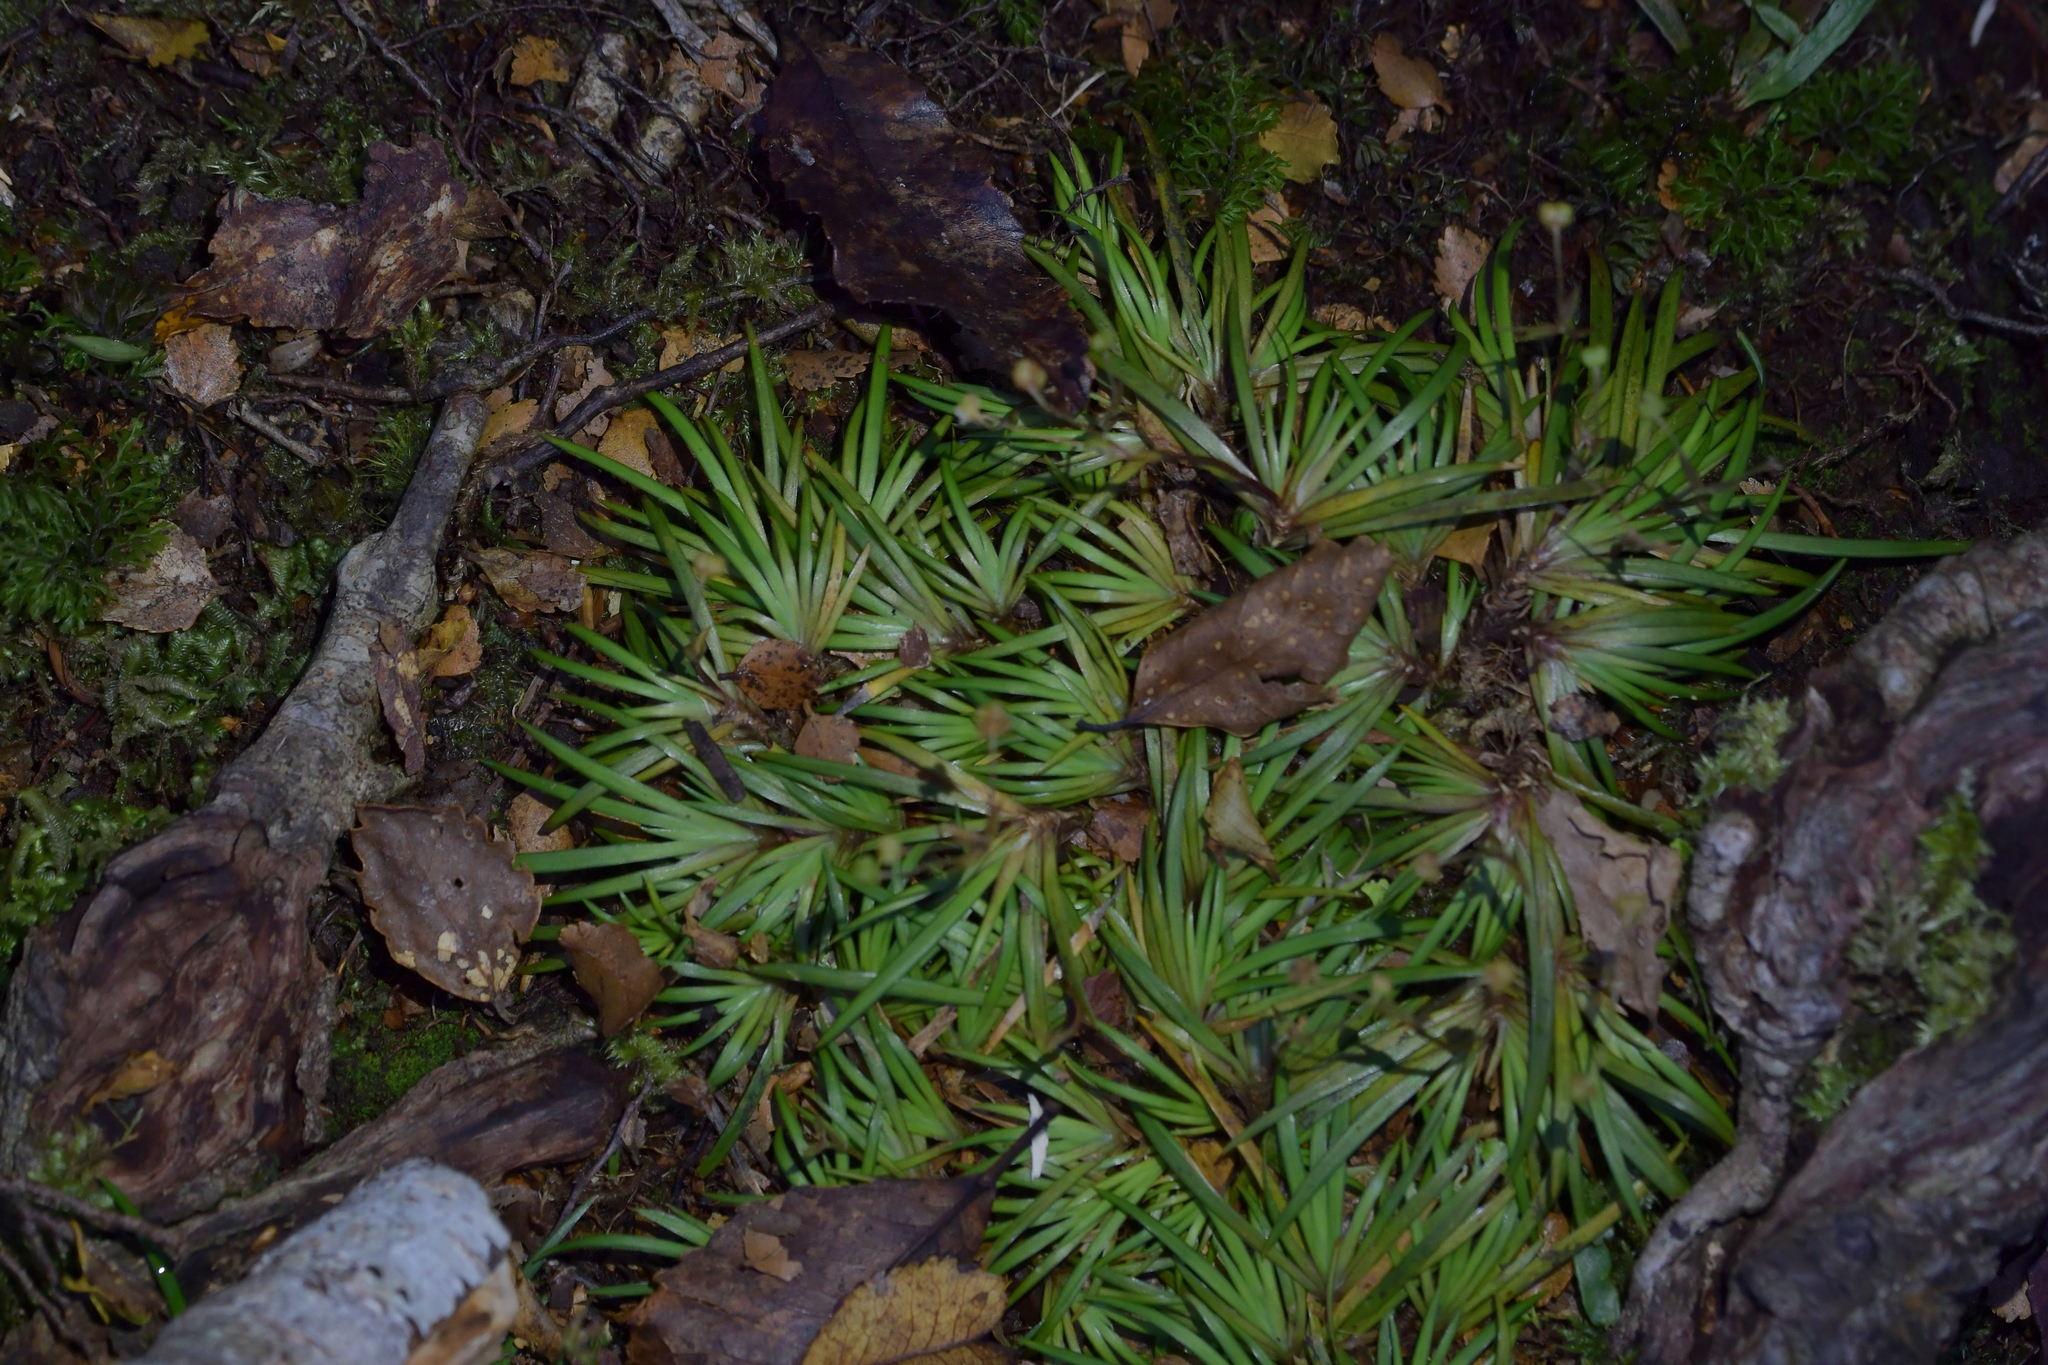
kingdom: Plantae
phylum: Tracheophyta
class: Liliopsida
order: Asparagales
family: Iridaceae
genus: Libertia
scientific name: Libertia micrantha
